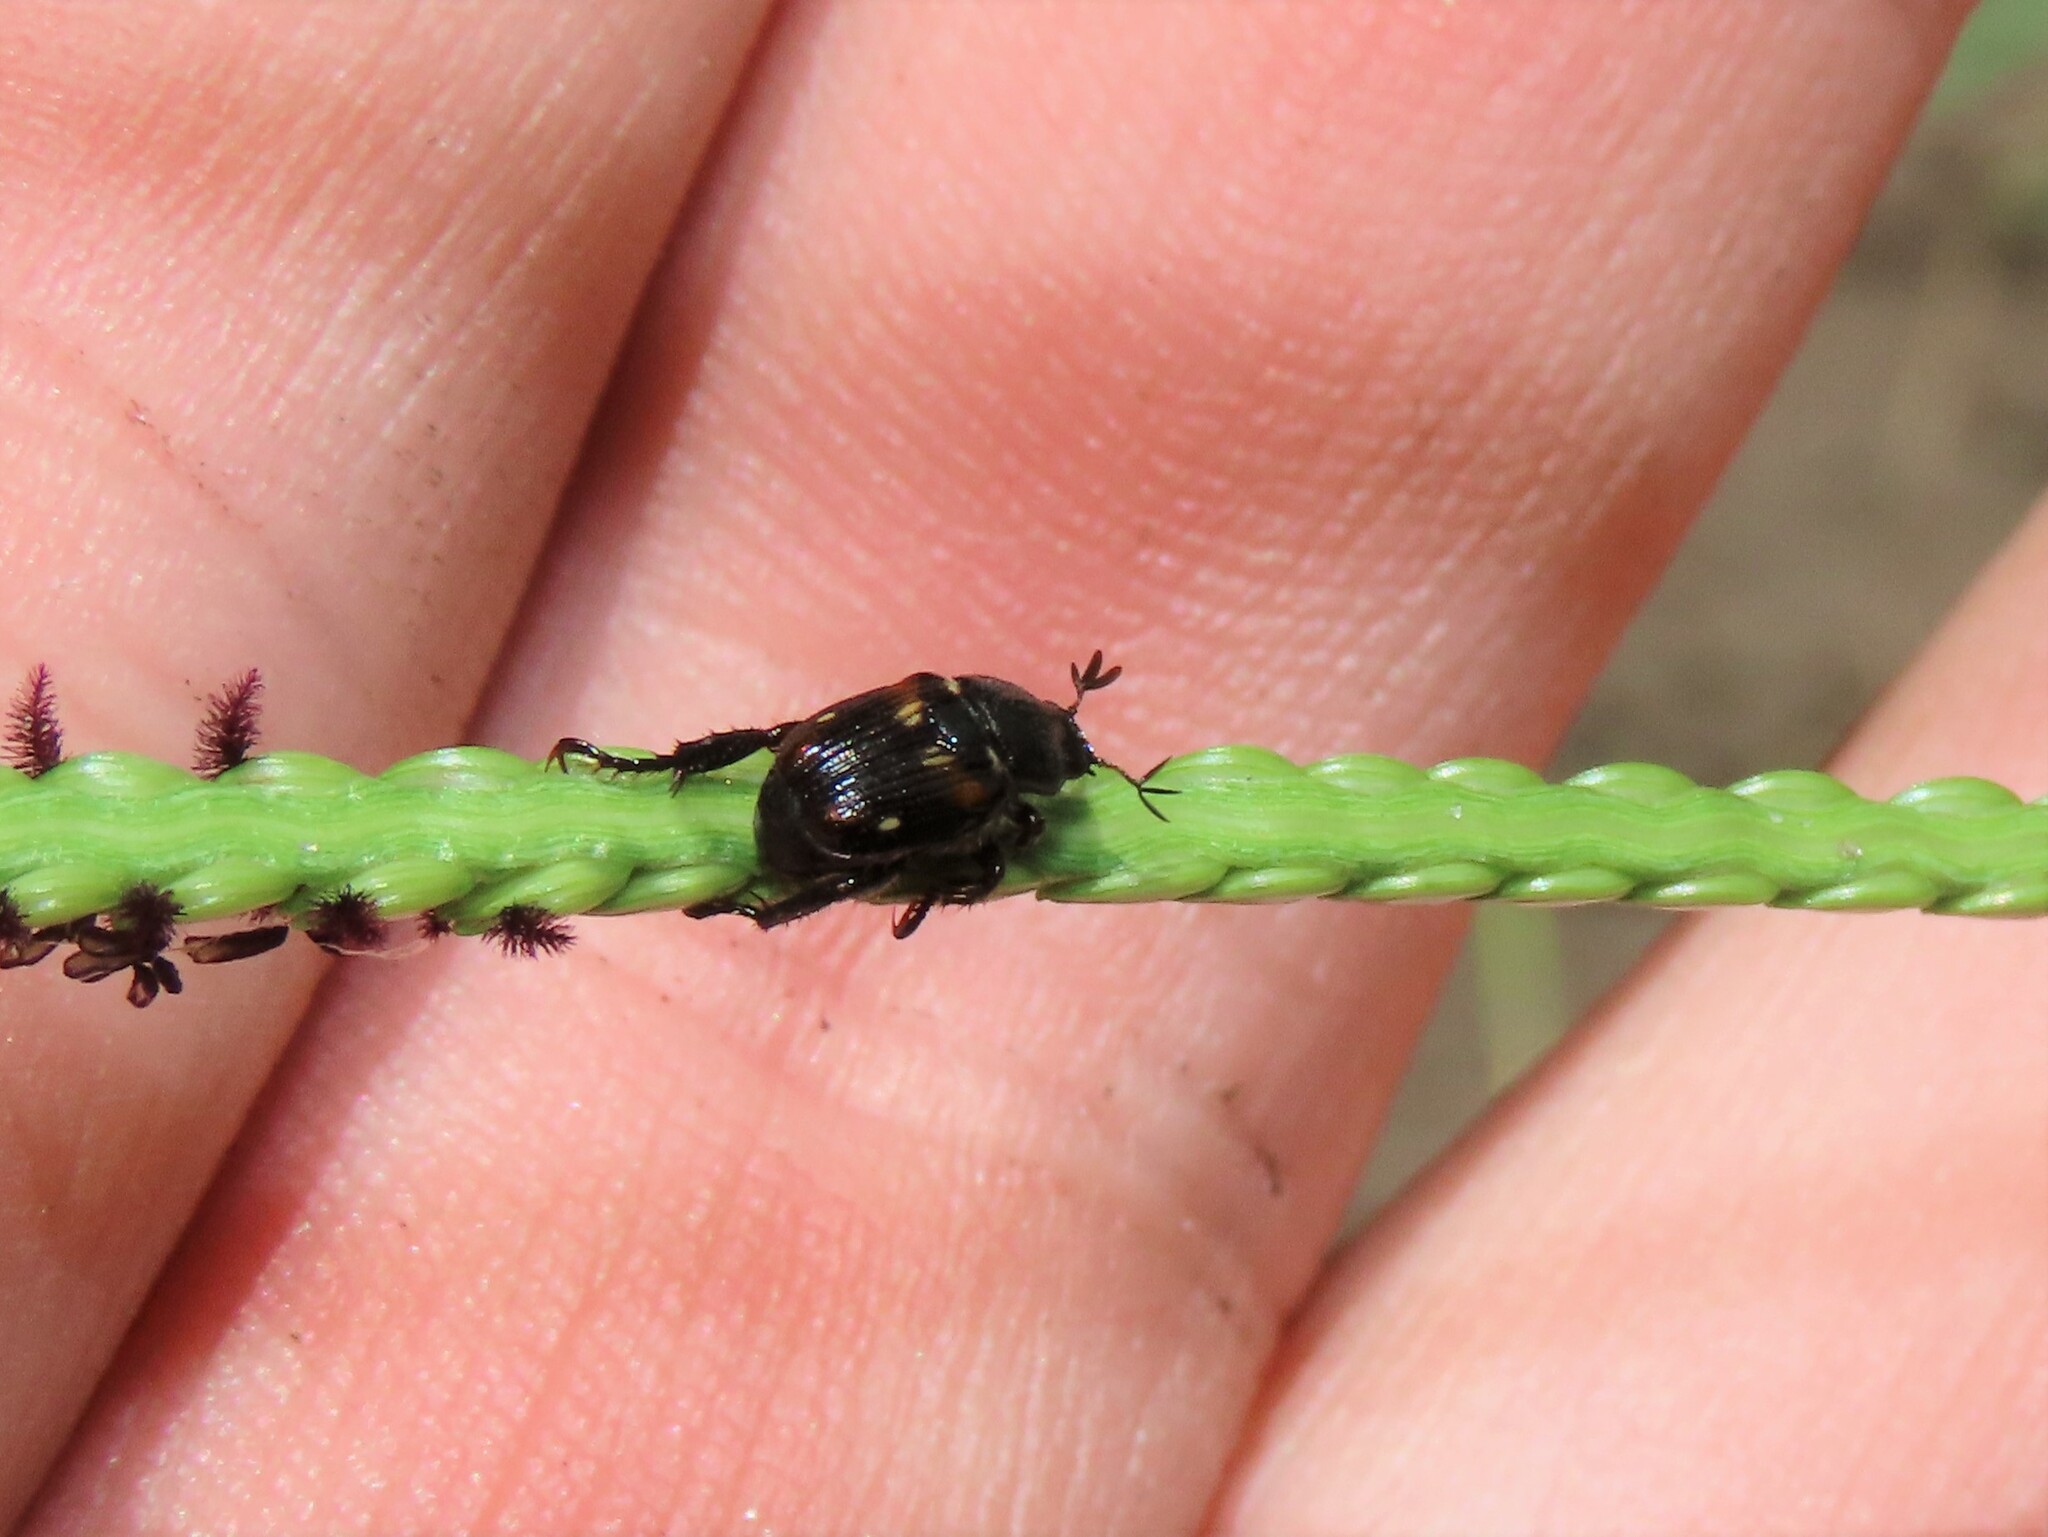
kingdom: Animalia
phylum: Arthropoda
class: Insecta
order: Coleoptera
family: Scarabaeidae
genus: Strigoderma
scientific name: Strigoderma pygmaea
